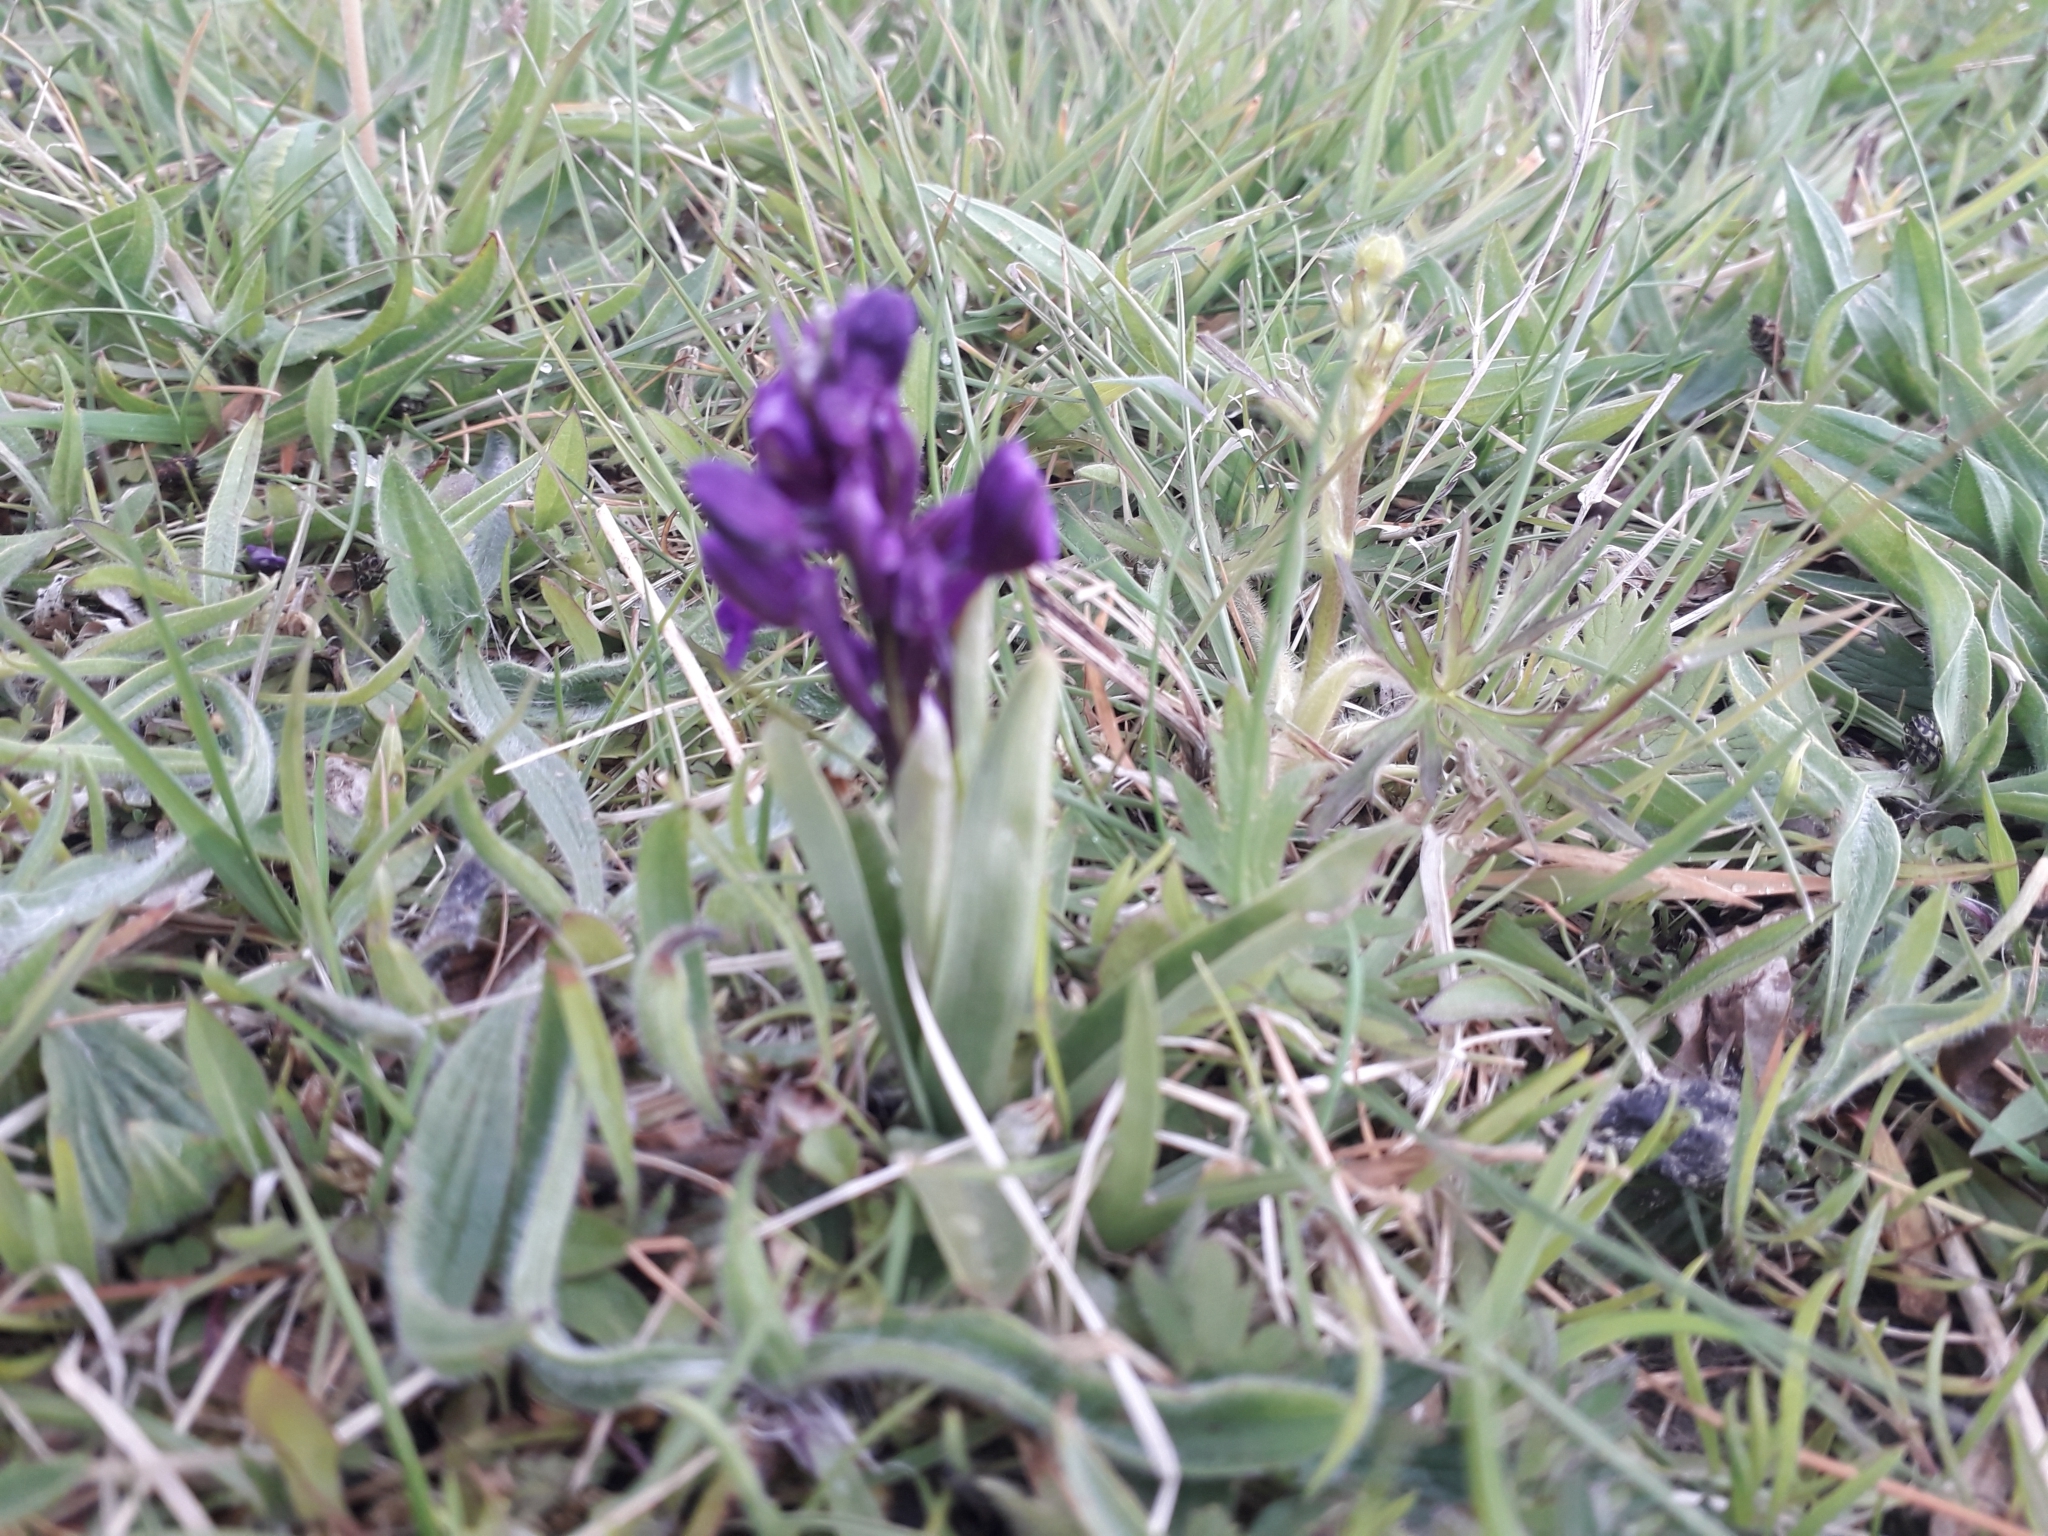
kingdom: Plantae
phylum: Tracheophyta
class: Liliopsida
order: Asparagales
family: Orchidaceae
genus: Anacamptis
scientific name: Anacamptis morio
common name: Green-winged orchid
